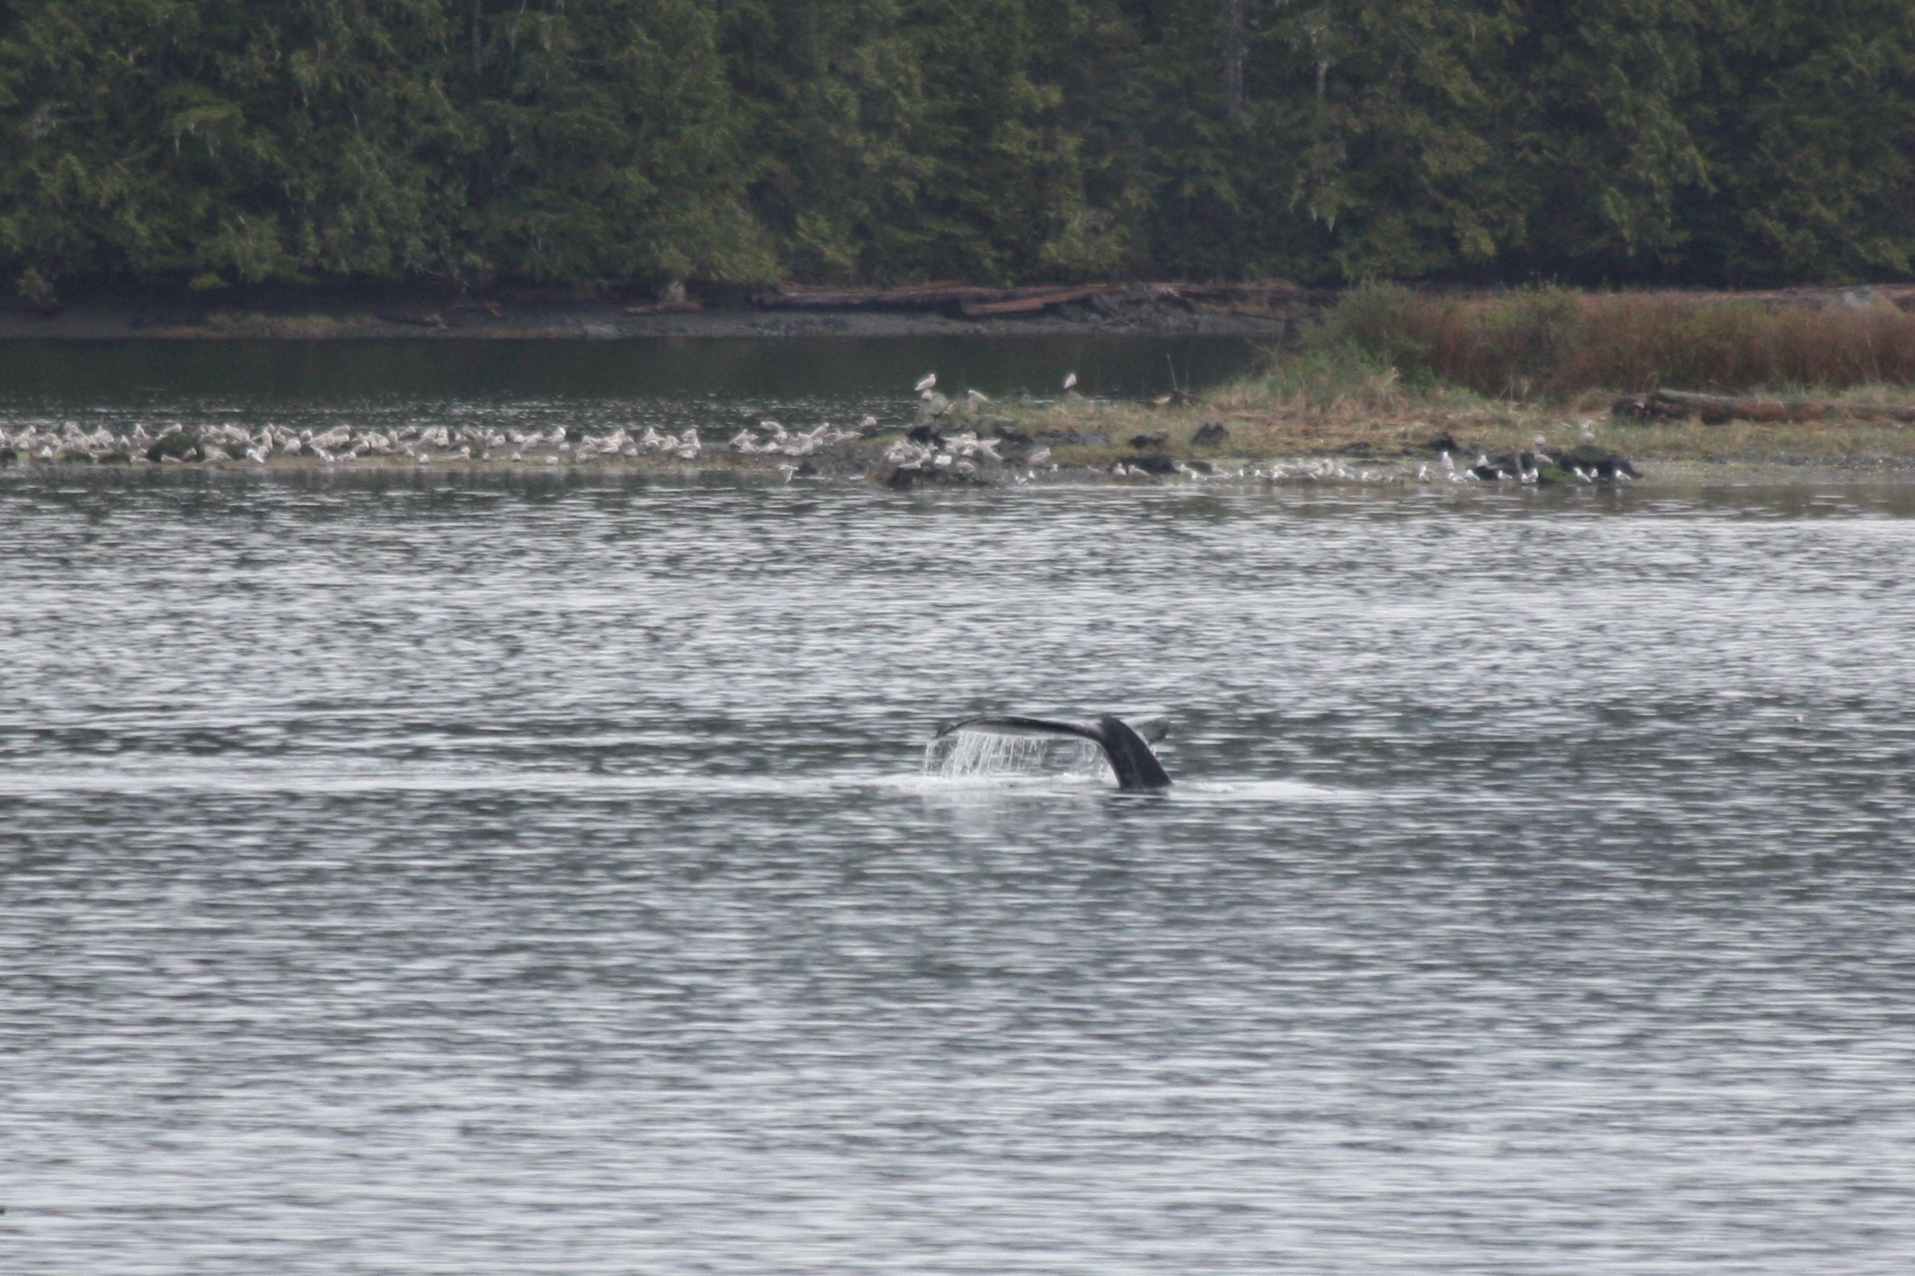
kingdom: Animalia
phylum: Chordata
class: Mammalia
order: Cetacea
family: Balaenopteridae
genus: Megaptera
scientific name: Megaptera novaeangliae
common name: Humpback whale
